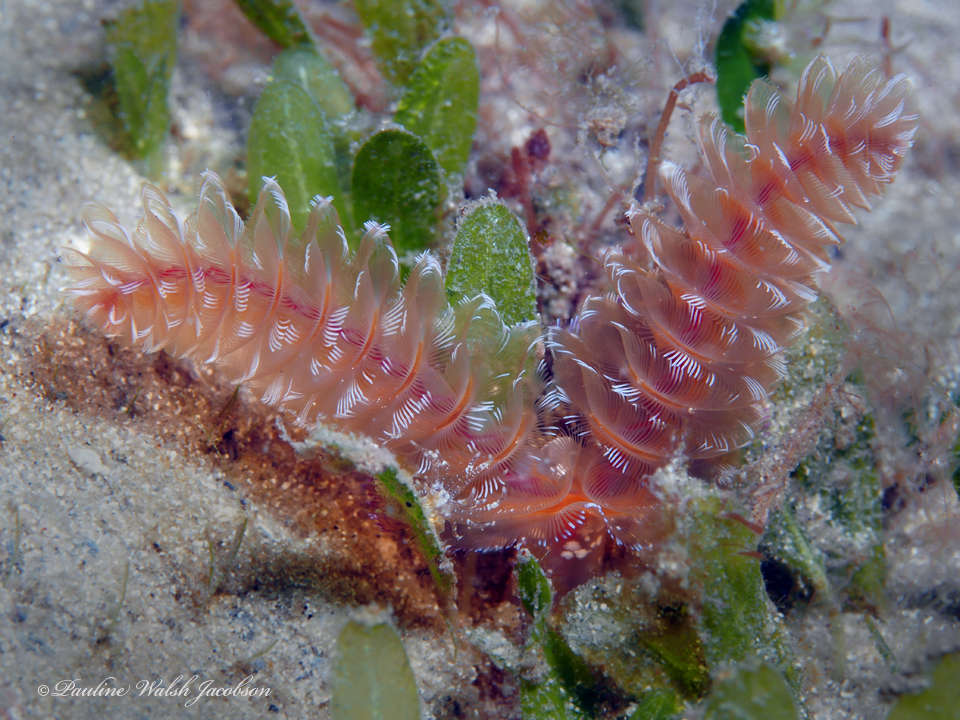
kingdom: Animalia
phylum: Phoronida
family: Phoronidae
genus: Phoronopsis
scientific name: Phoronopsis californica
